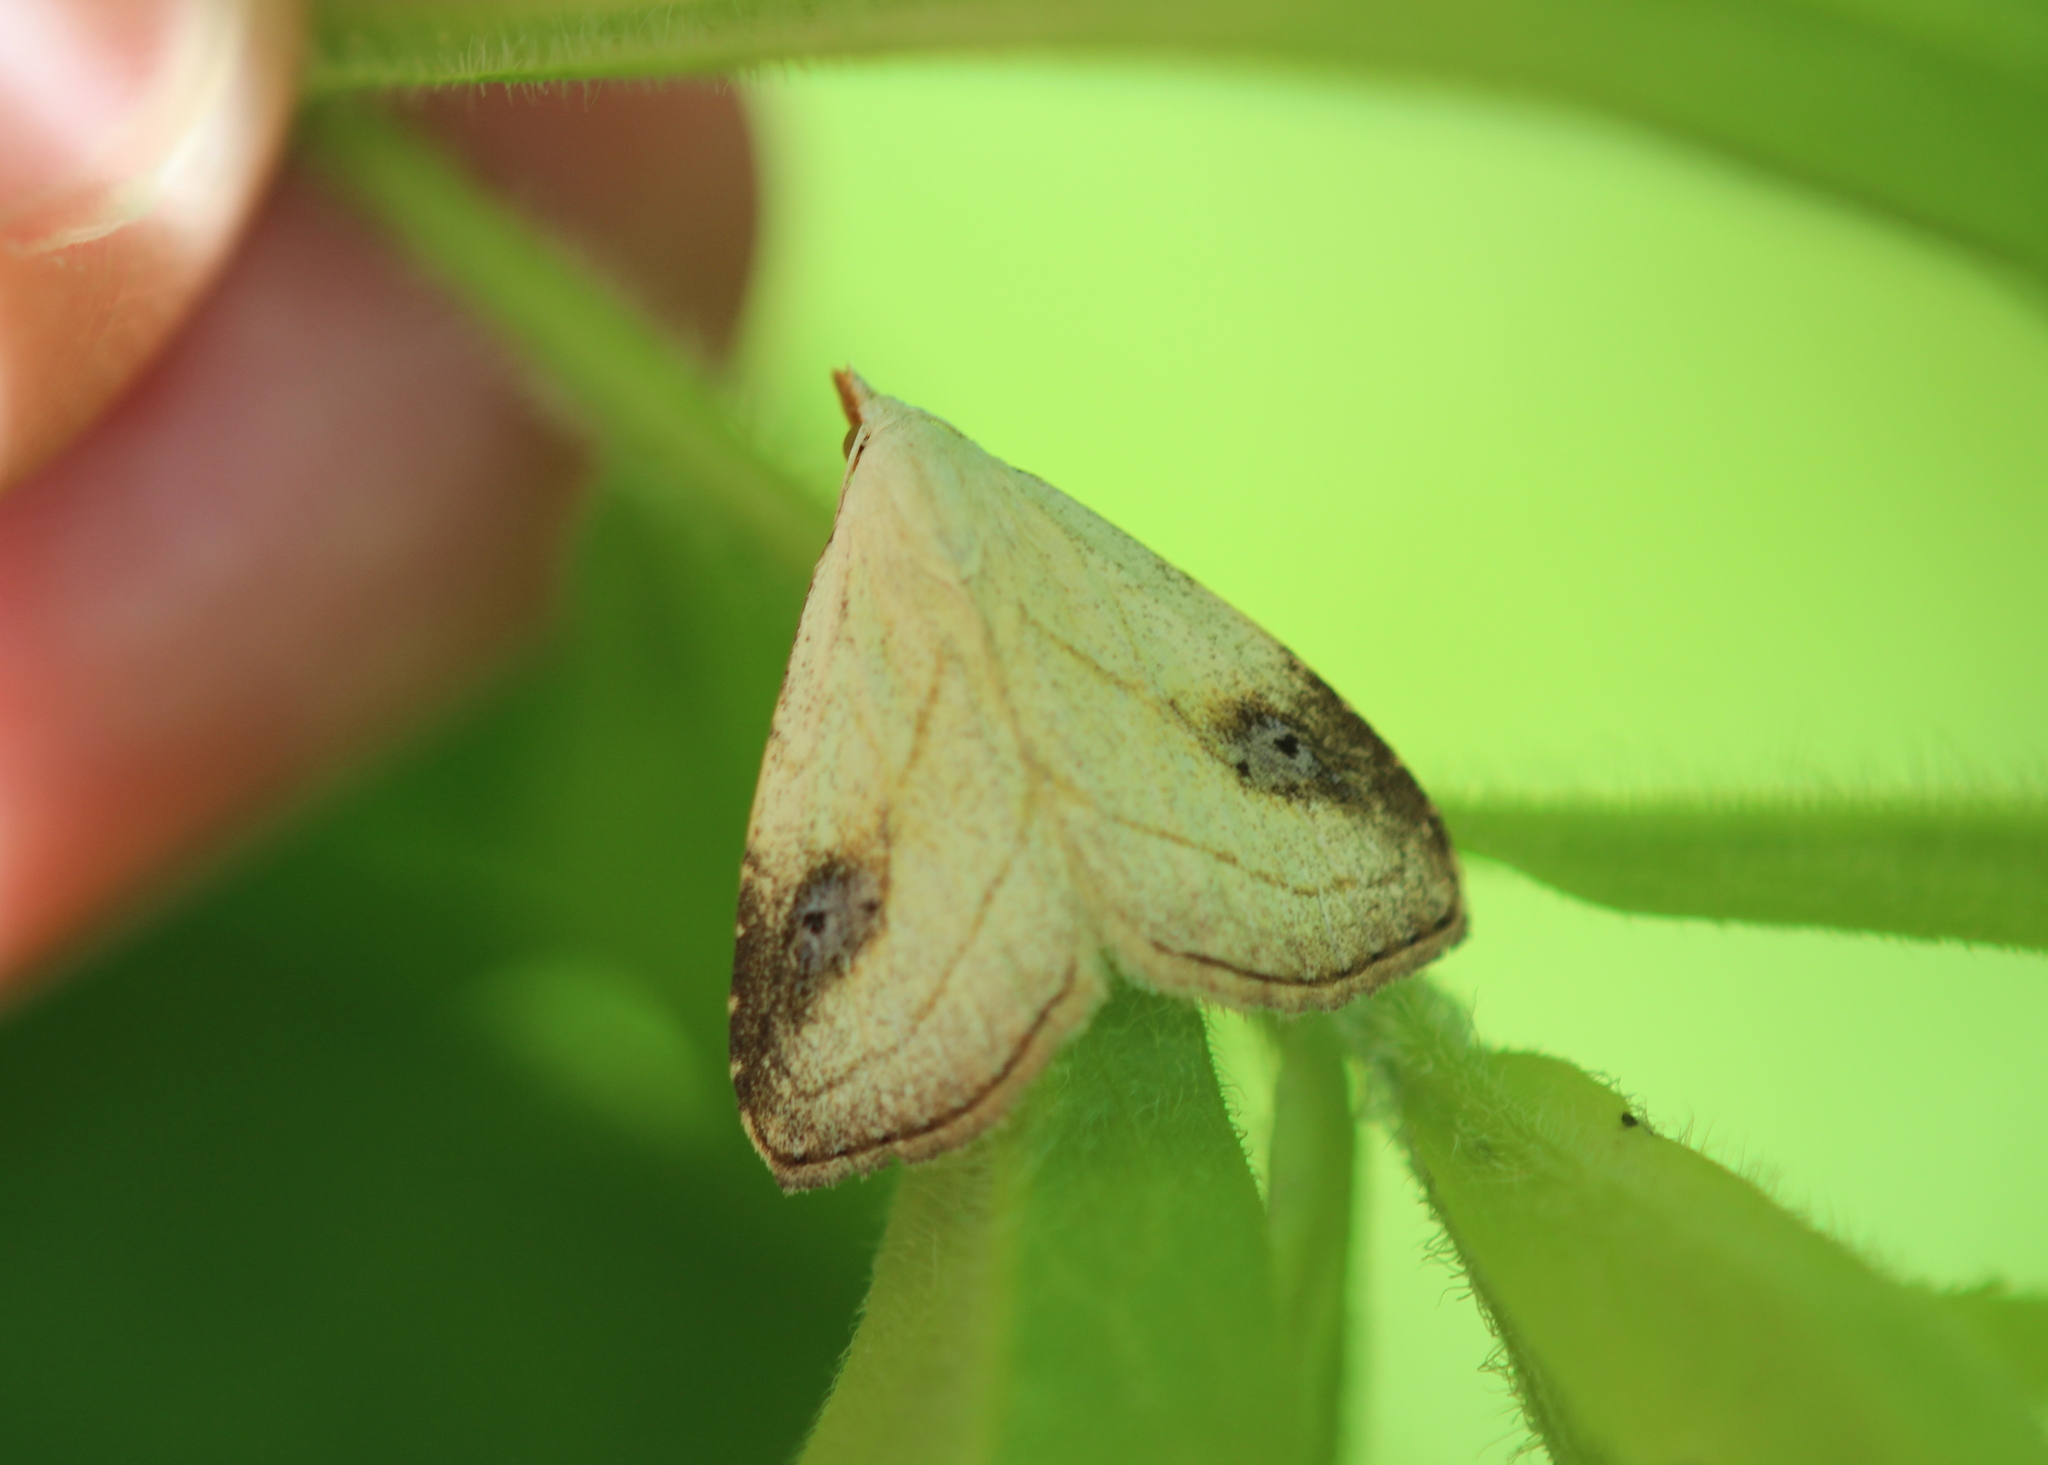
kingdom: Animalia
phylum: Arthropoda
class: Insecta
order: Lepidoptera
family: Erebidae
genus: Rivula
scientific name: Rivula propinqualis
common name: Spotted grass moth
